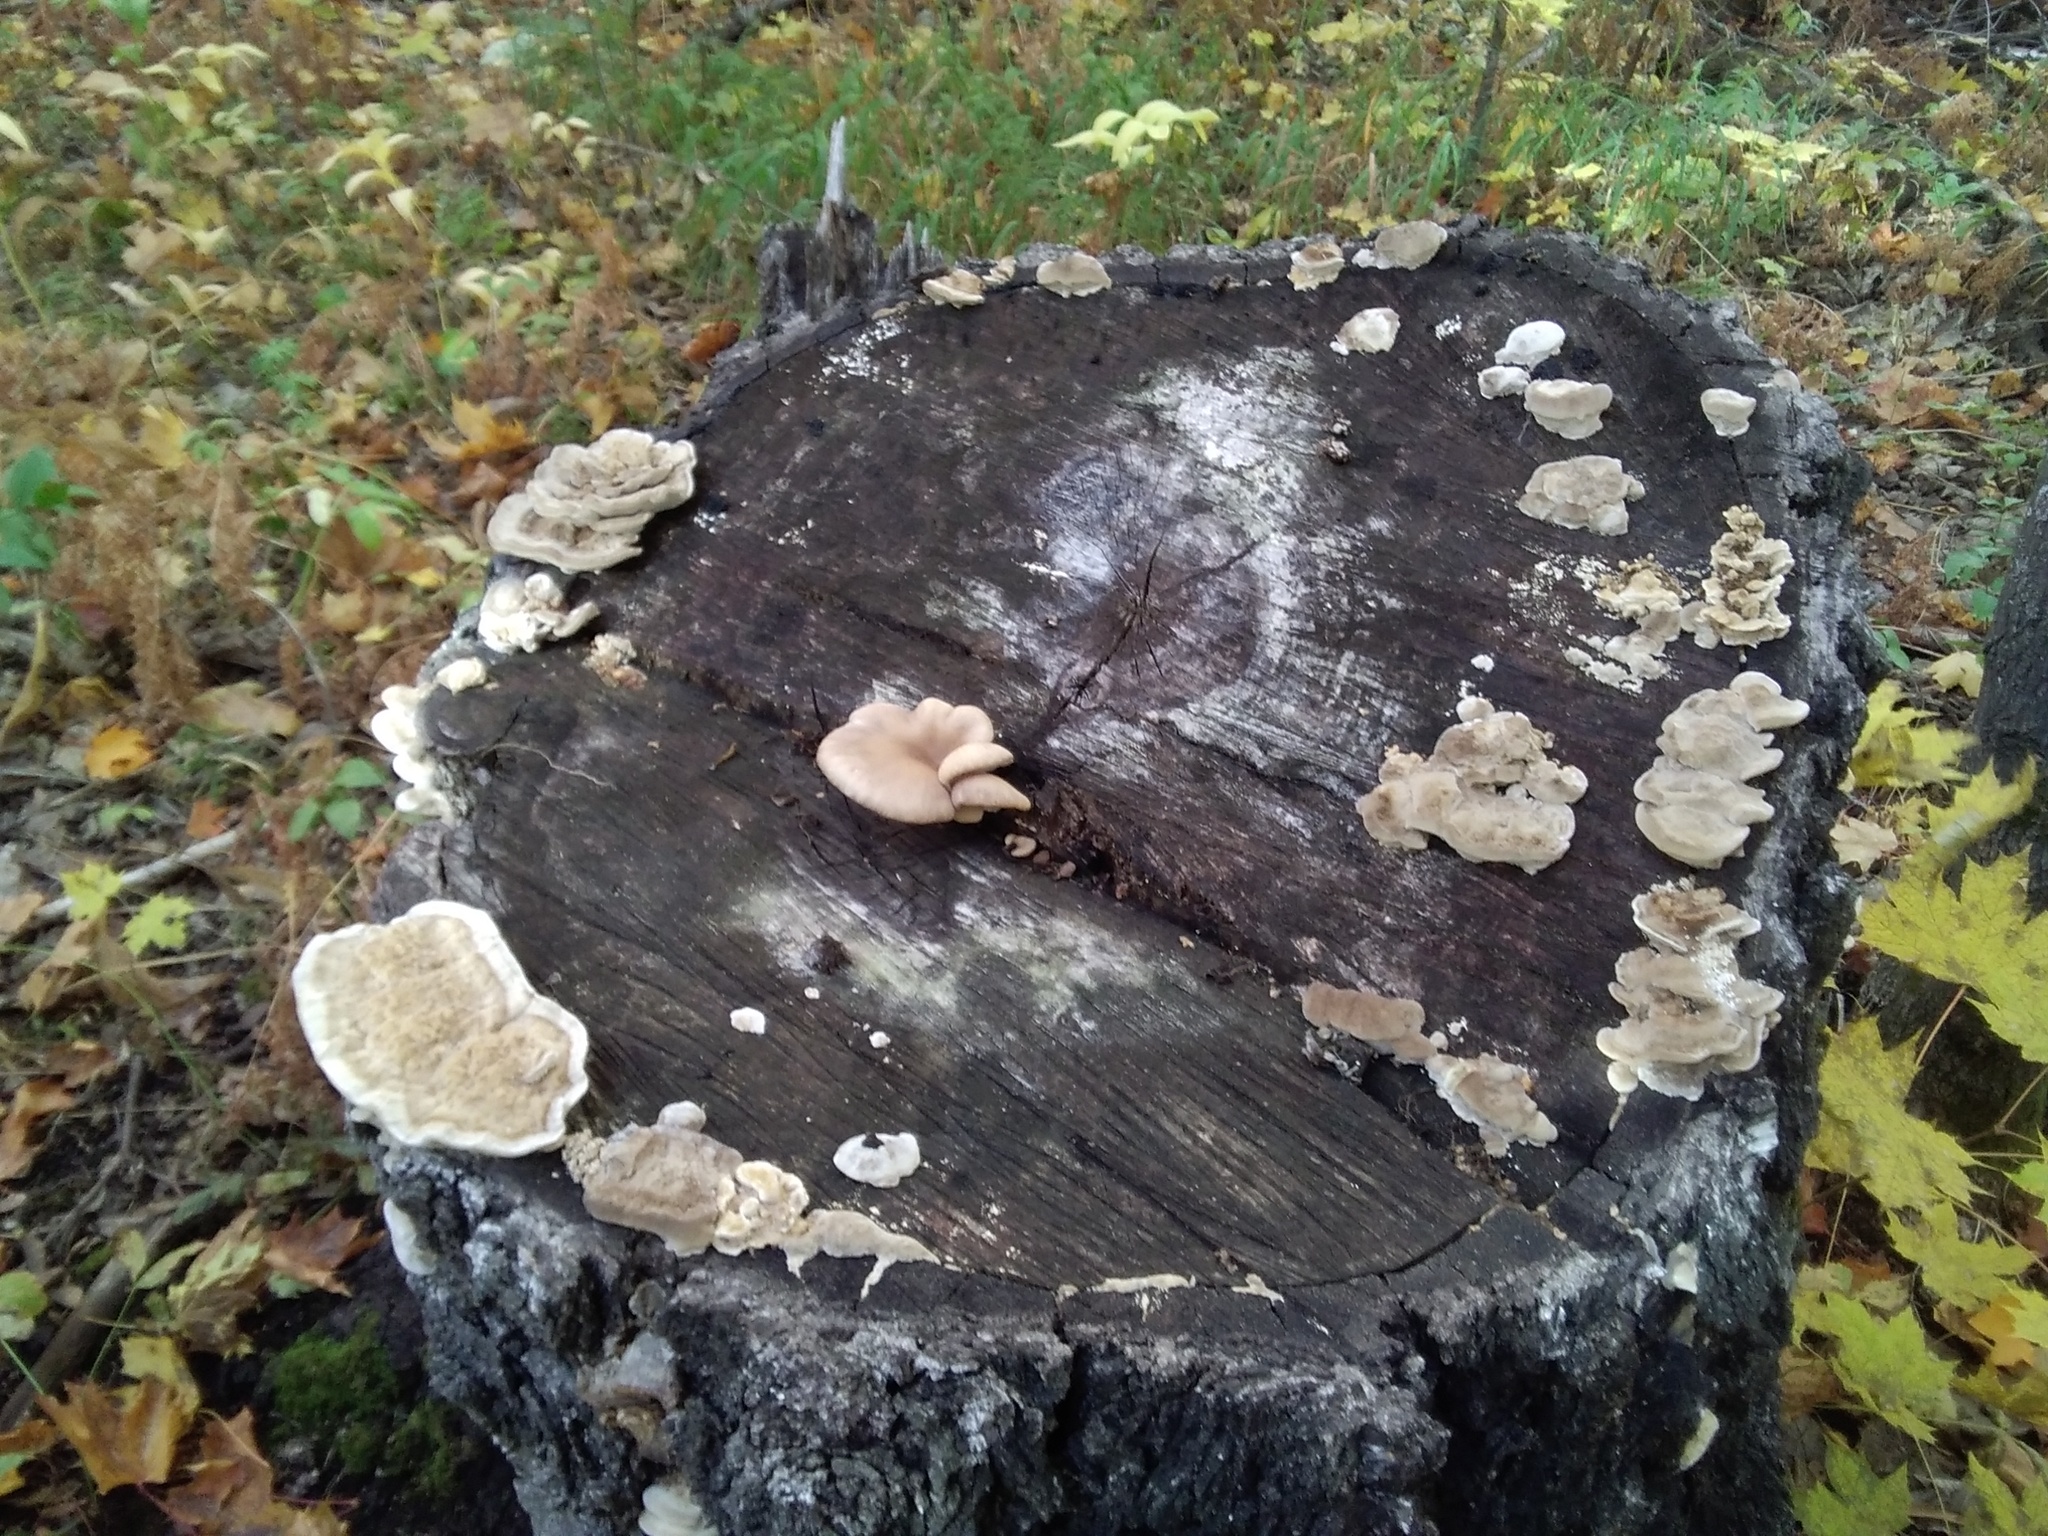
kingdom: Fungi
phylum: Basidiomycota
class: Agaricomycetes
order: Polyporales
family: Polyporaceae
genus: Trametes
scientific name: Trametes ochracea
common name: Ochre bracket
